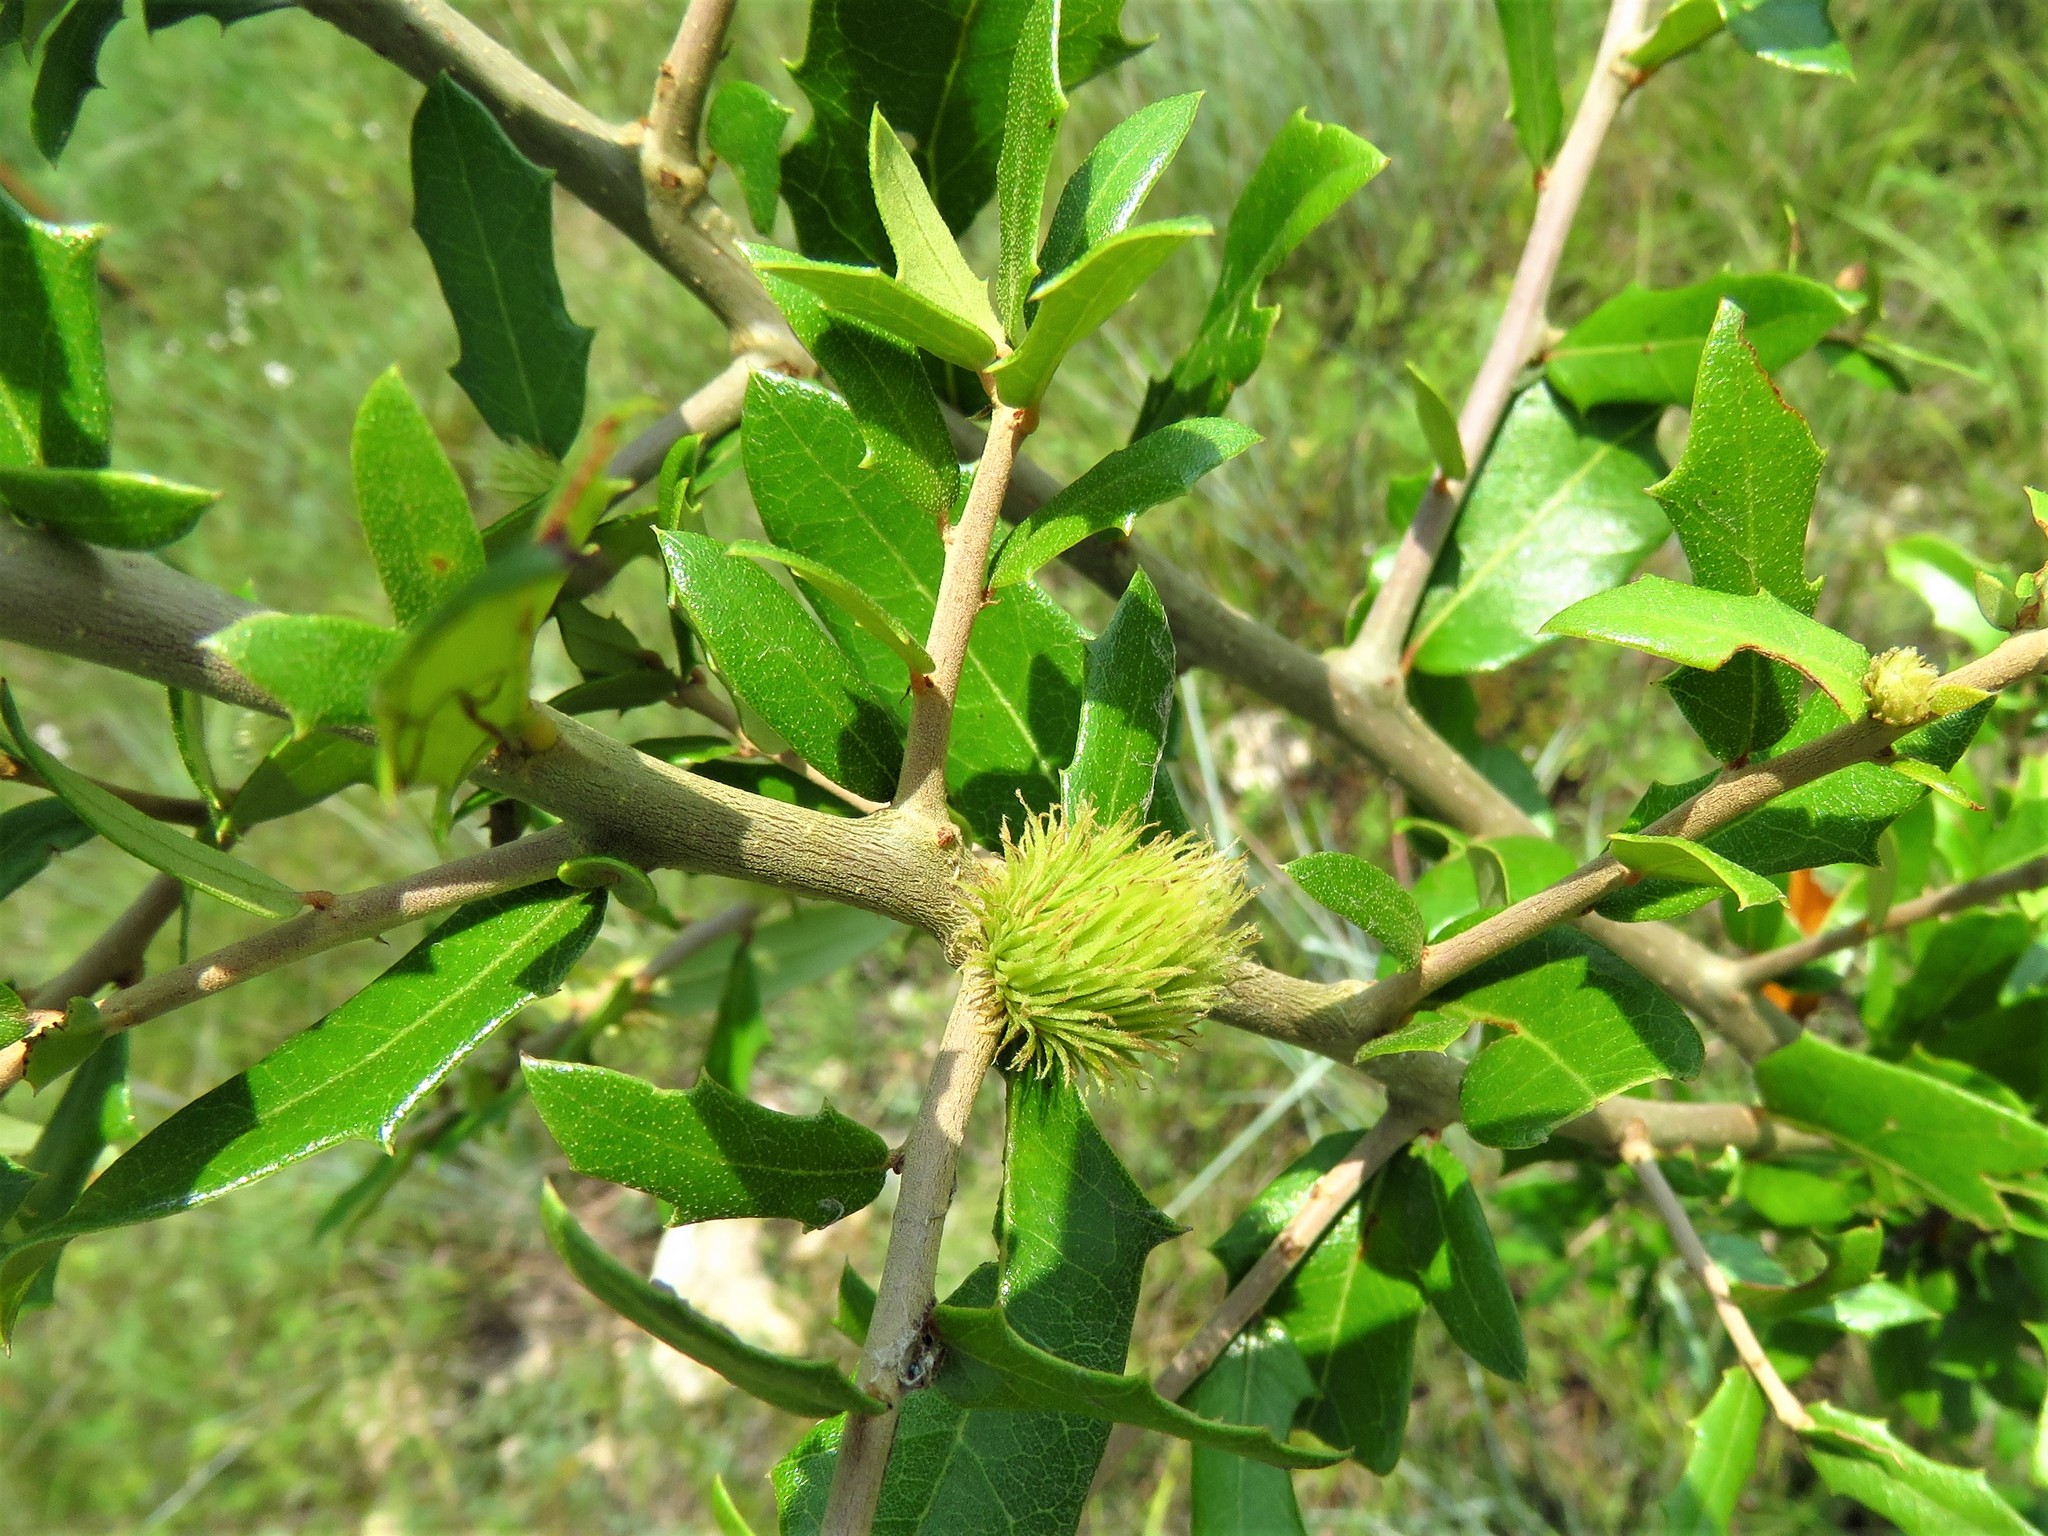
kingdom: Animalia
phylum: Arthropoda
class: Insecta
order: Hymenoptera
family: Cynipidae
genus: Andricus
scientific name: Andricus quercusfoliatus
